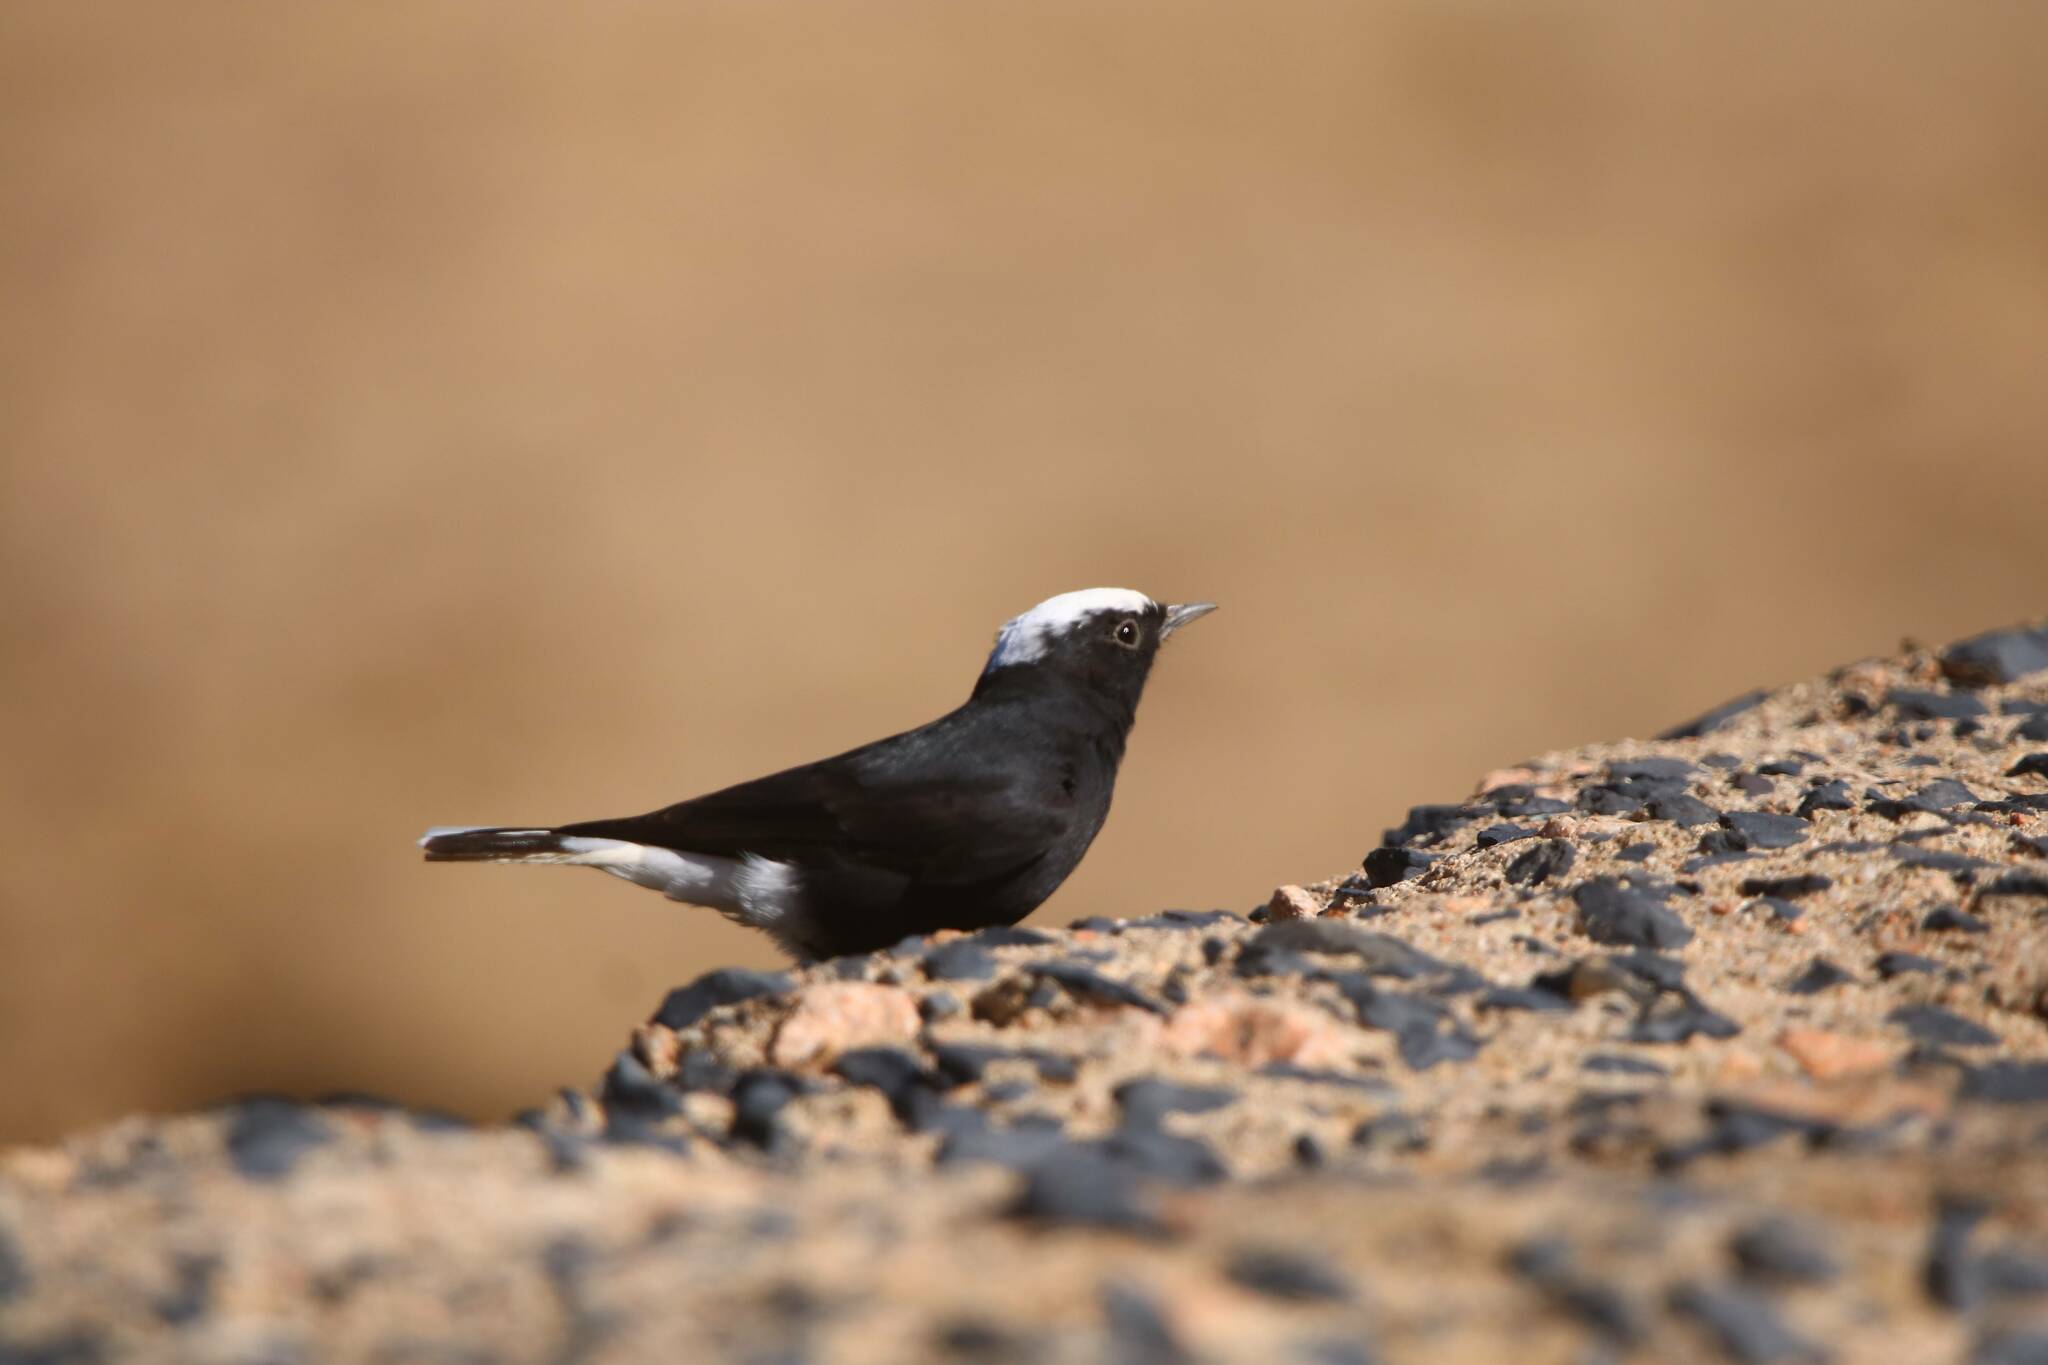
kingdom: Animalia
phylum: Chordata
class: Aves
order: Passeriformes
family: Muscicapidae
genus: Oenanthe
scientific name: Oenanthe leucopyga
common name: White-crowned wheatear
